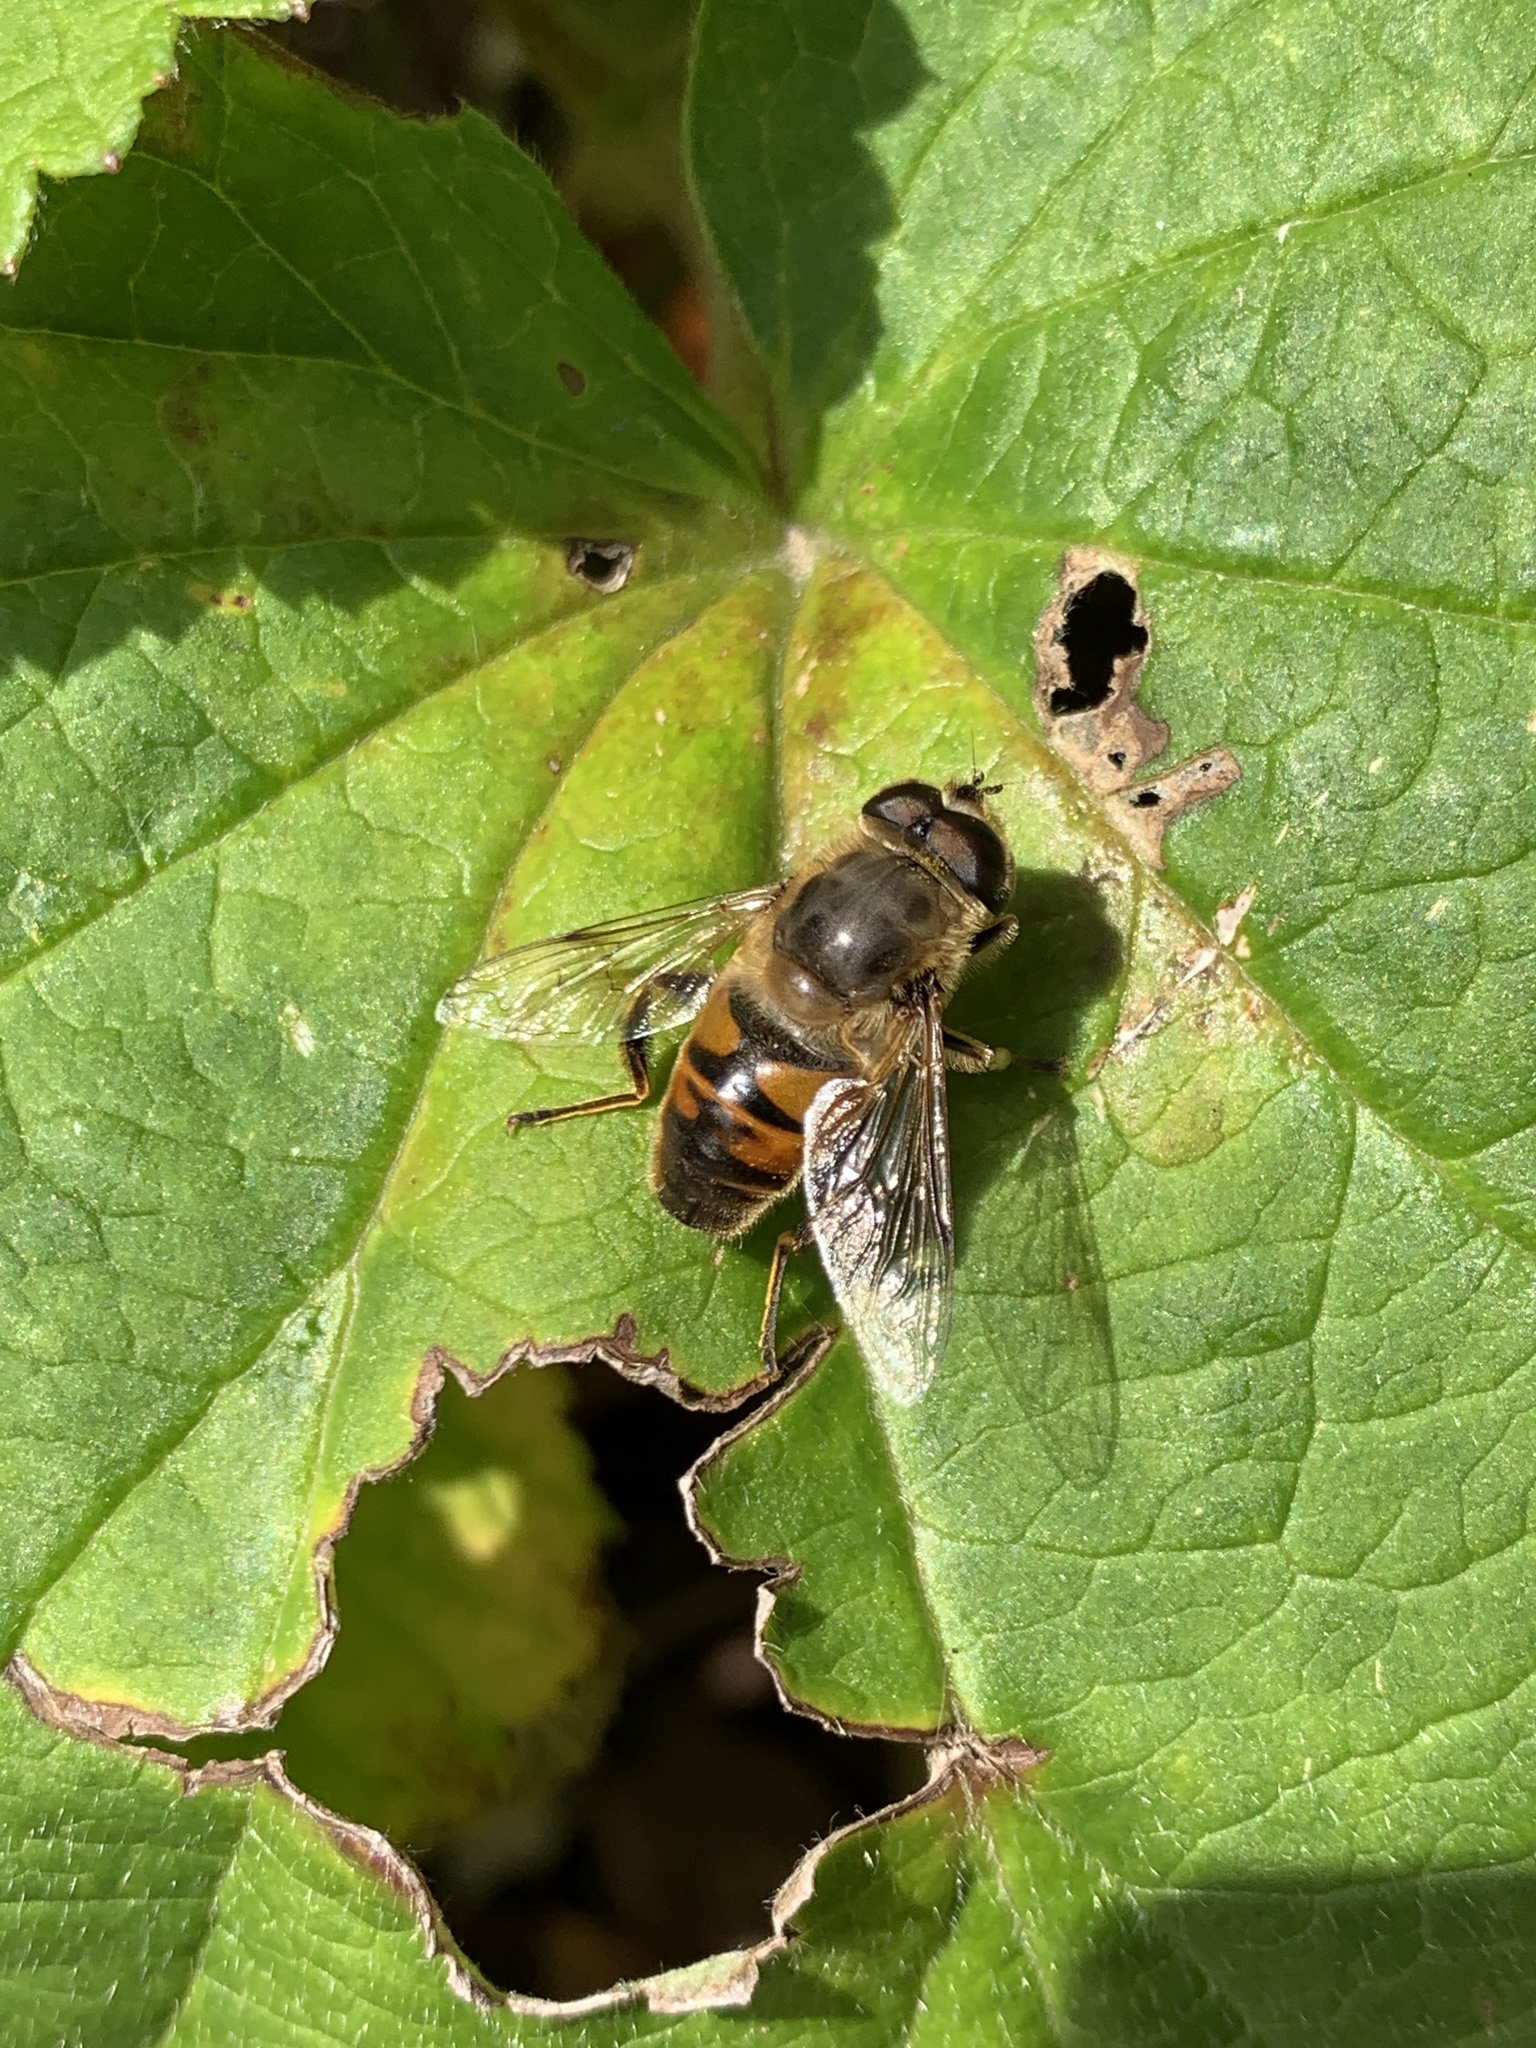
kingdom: Animalia
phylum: Arthropoda
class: Insecta
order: Diptera
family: Syrphidae
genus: Eristalis
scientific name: Eristalis tenax
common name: Drone fly
